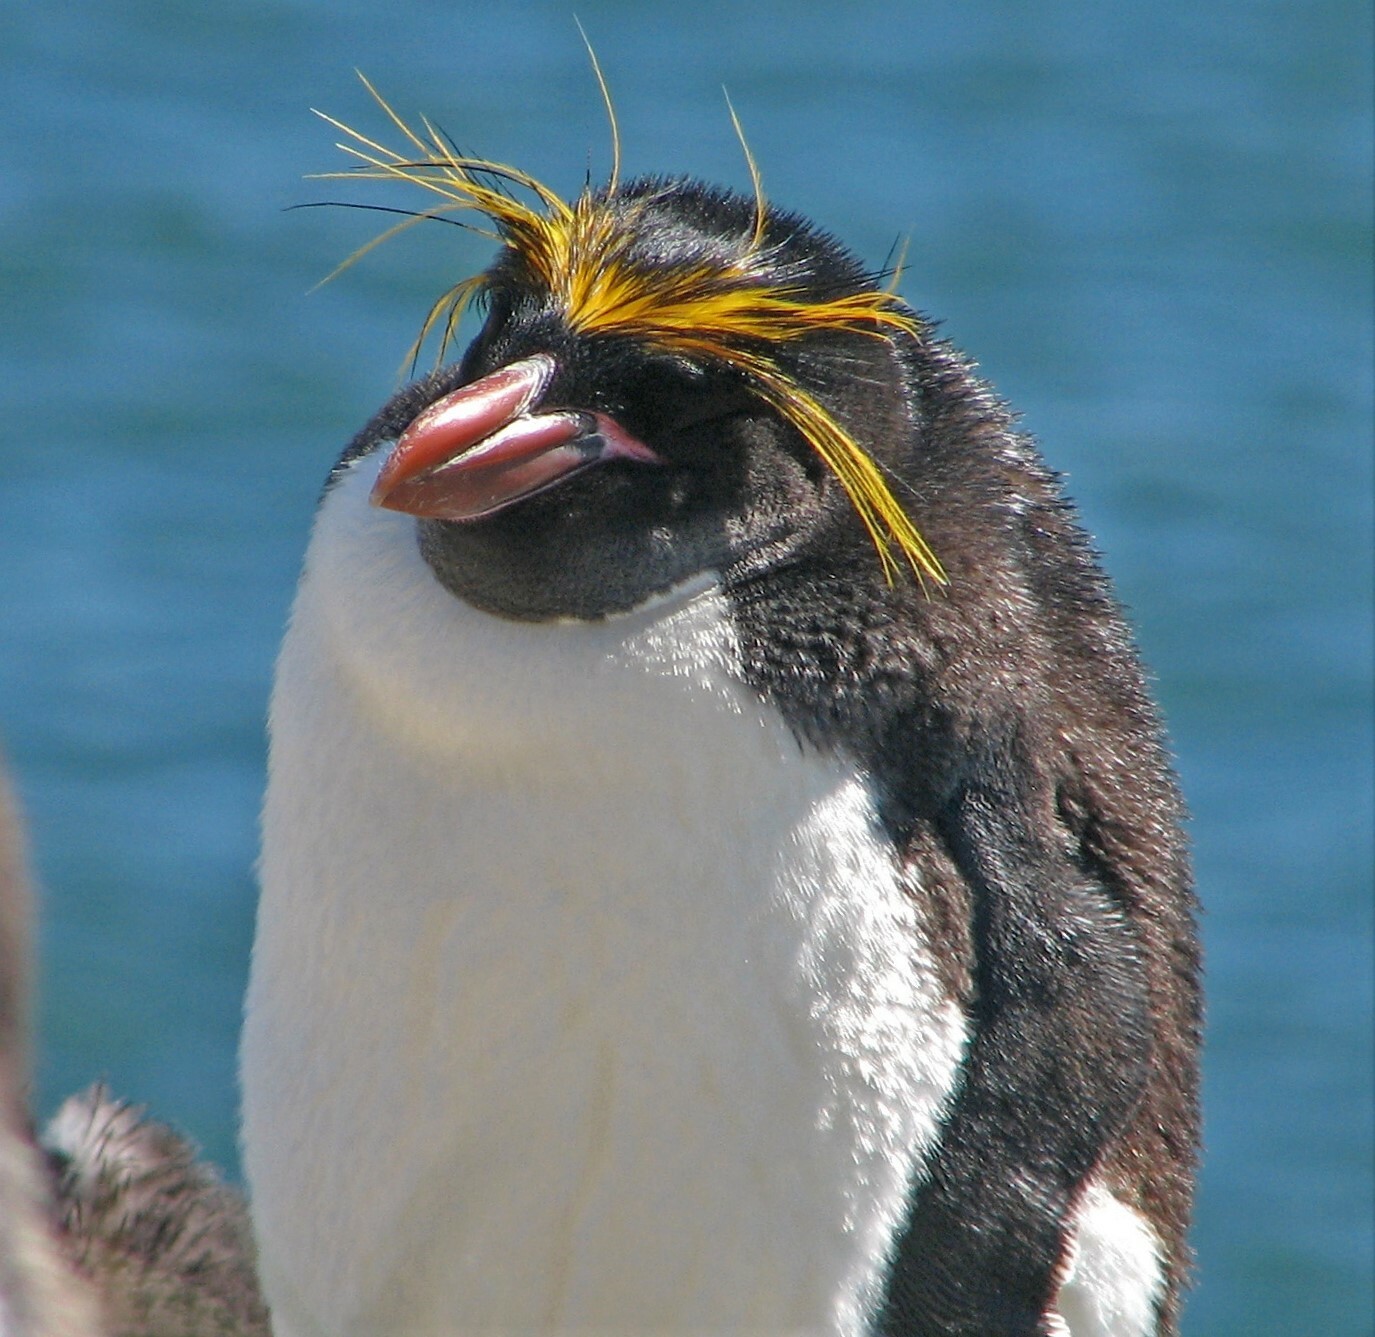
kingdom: Animalia
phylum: Chordata
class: Aves
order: Sphenisciformes
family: Spheniscidae
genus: Eudyptes
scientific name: Eudyptes chrysolophus
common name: Macaroni penguin
